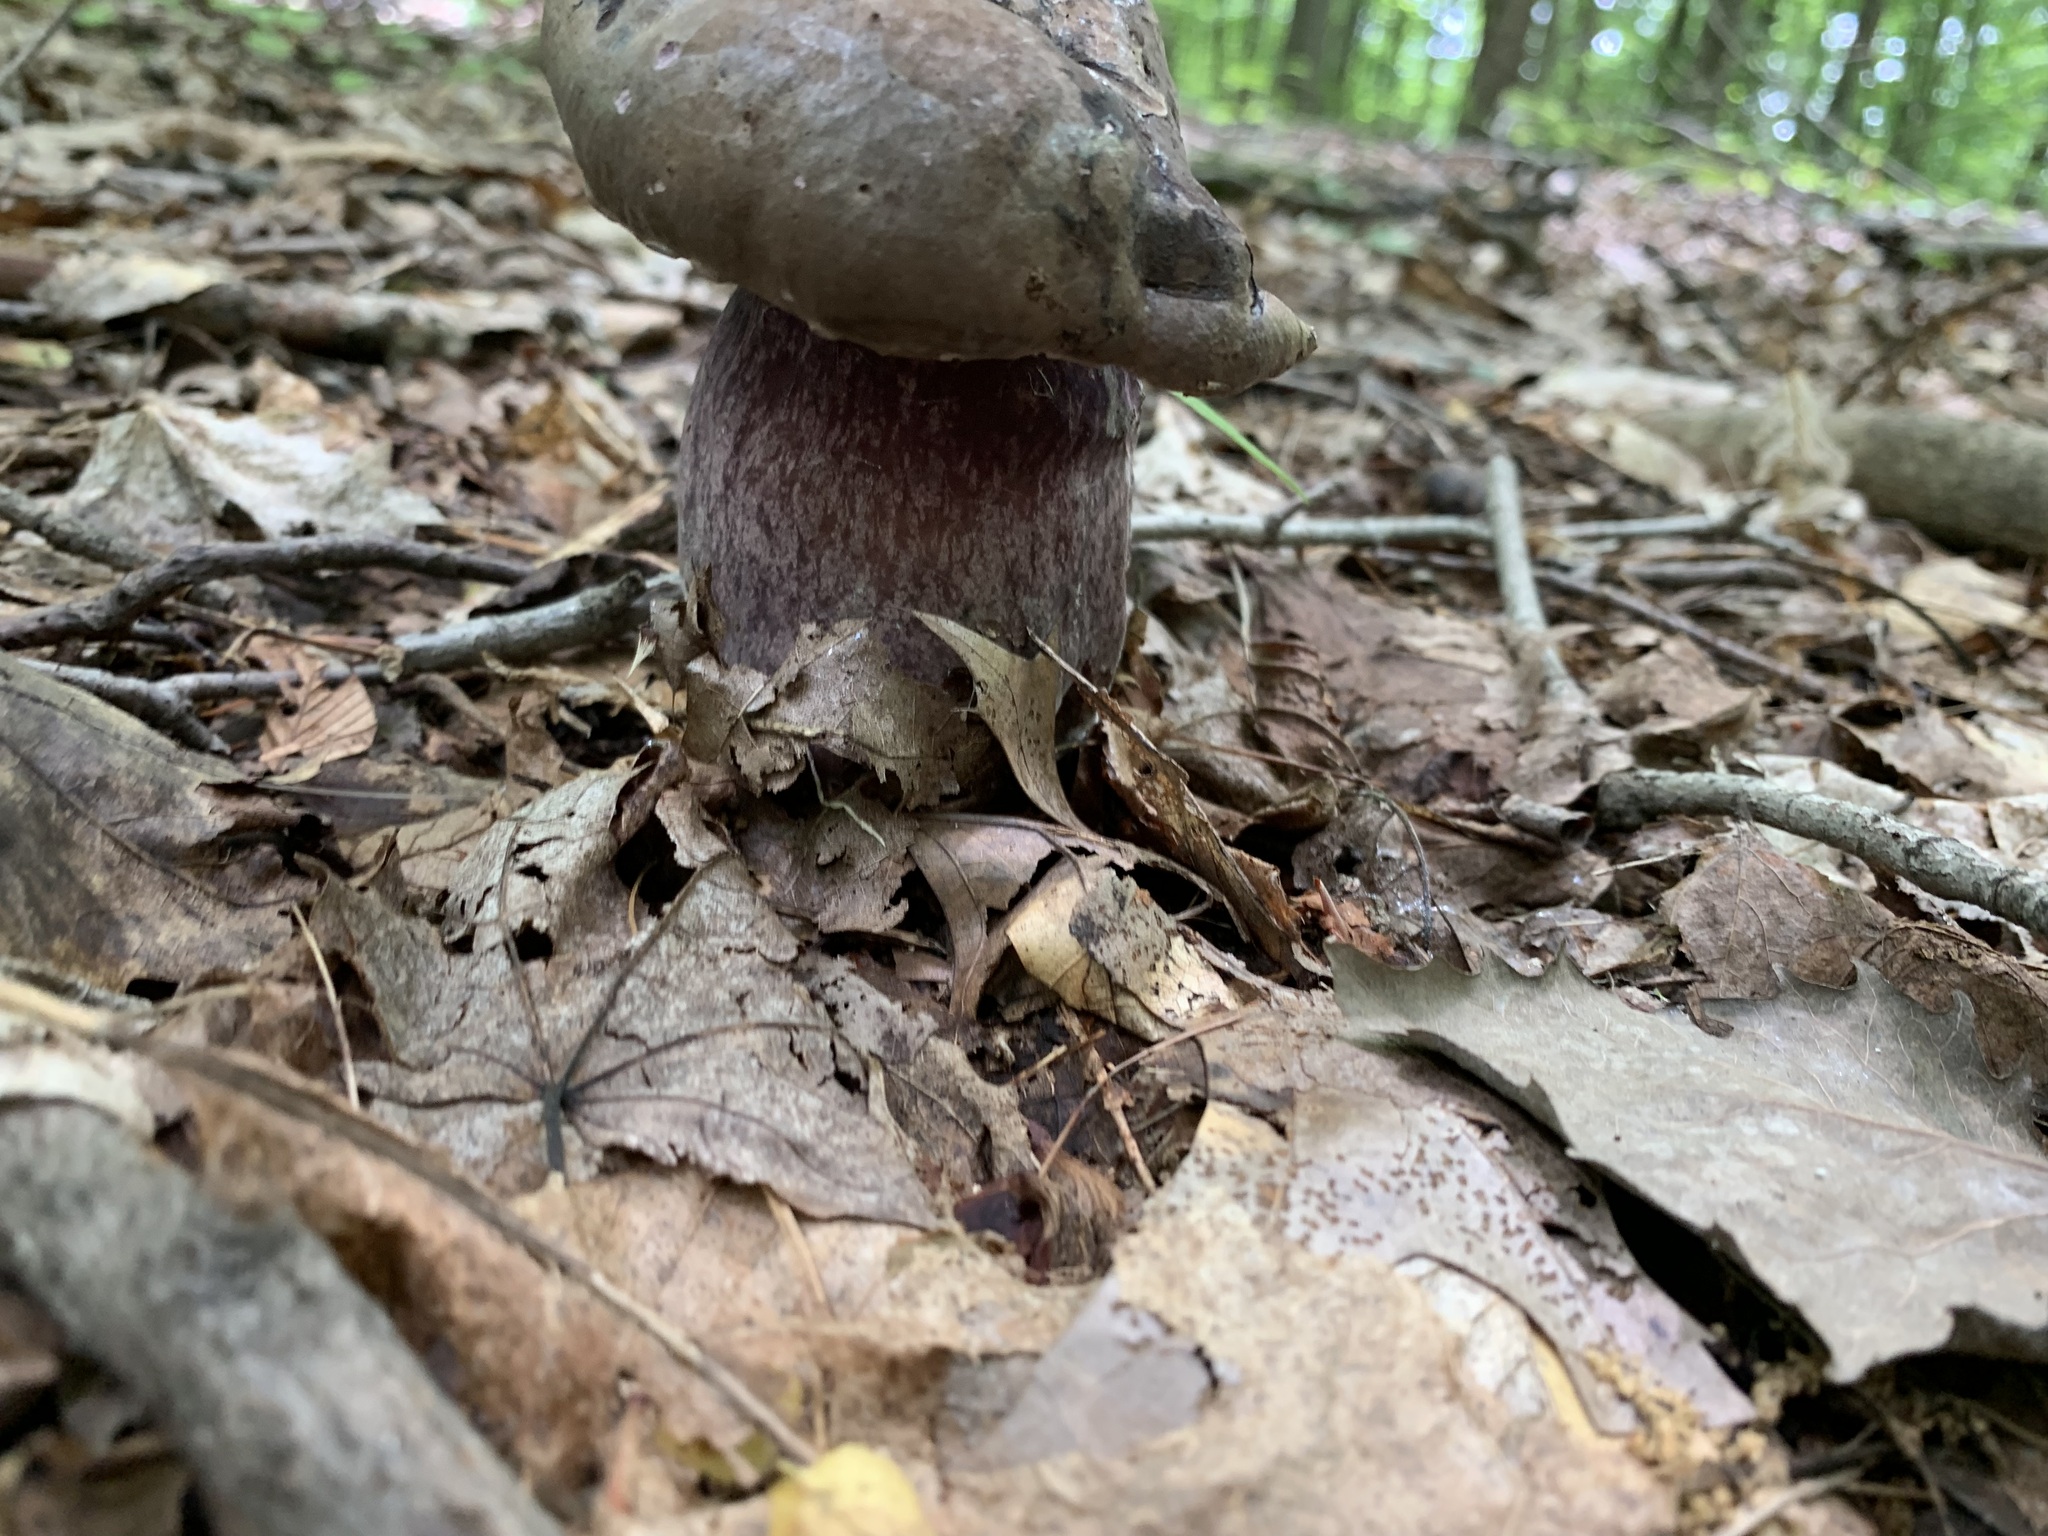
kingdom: Fungi
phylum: Basidiomycota
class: Agaricomycetes
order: Boletales
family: Boletaceae
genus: Tylopilus
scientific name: Tylopilus plumbeoviolaceus
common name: Violet gray bolete
